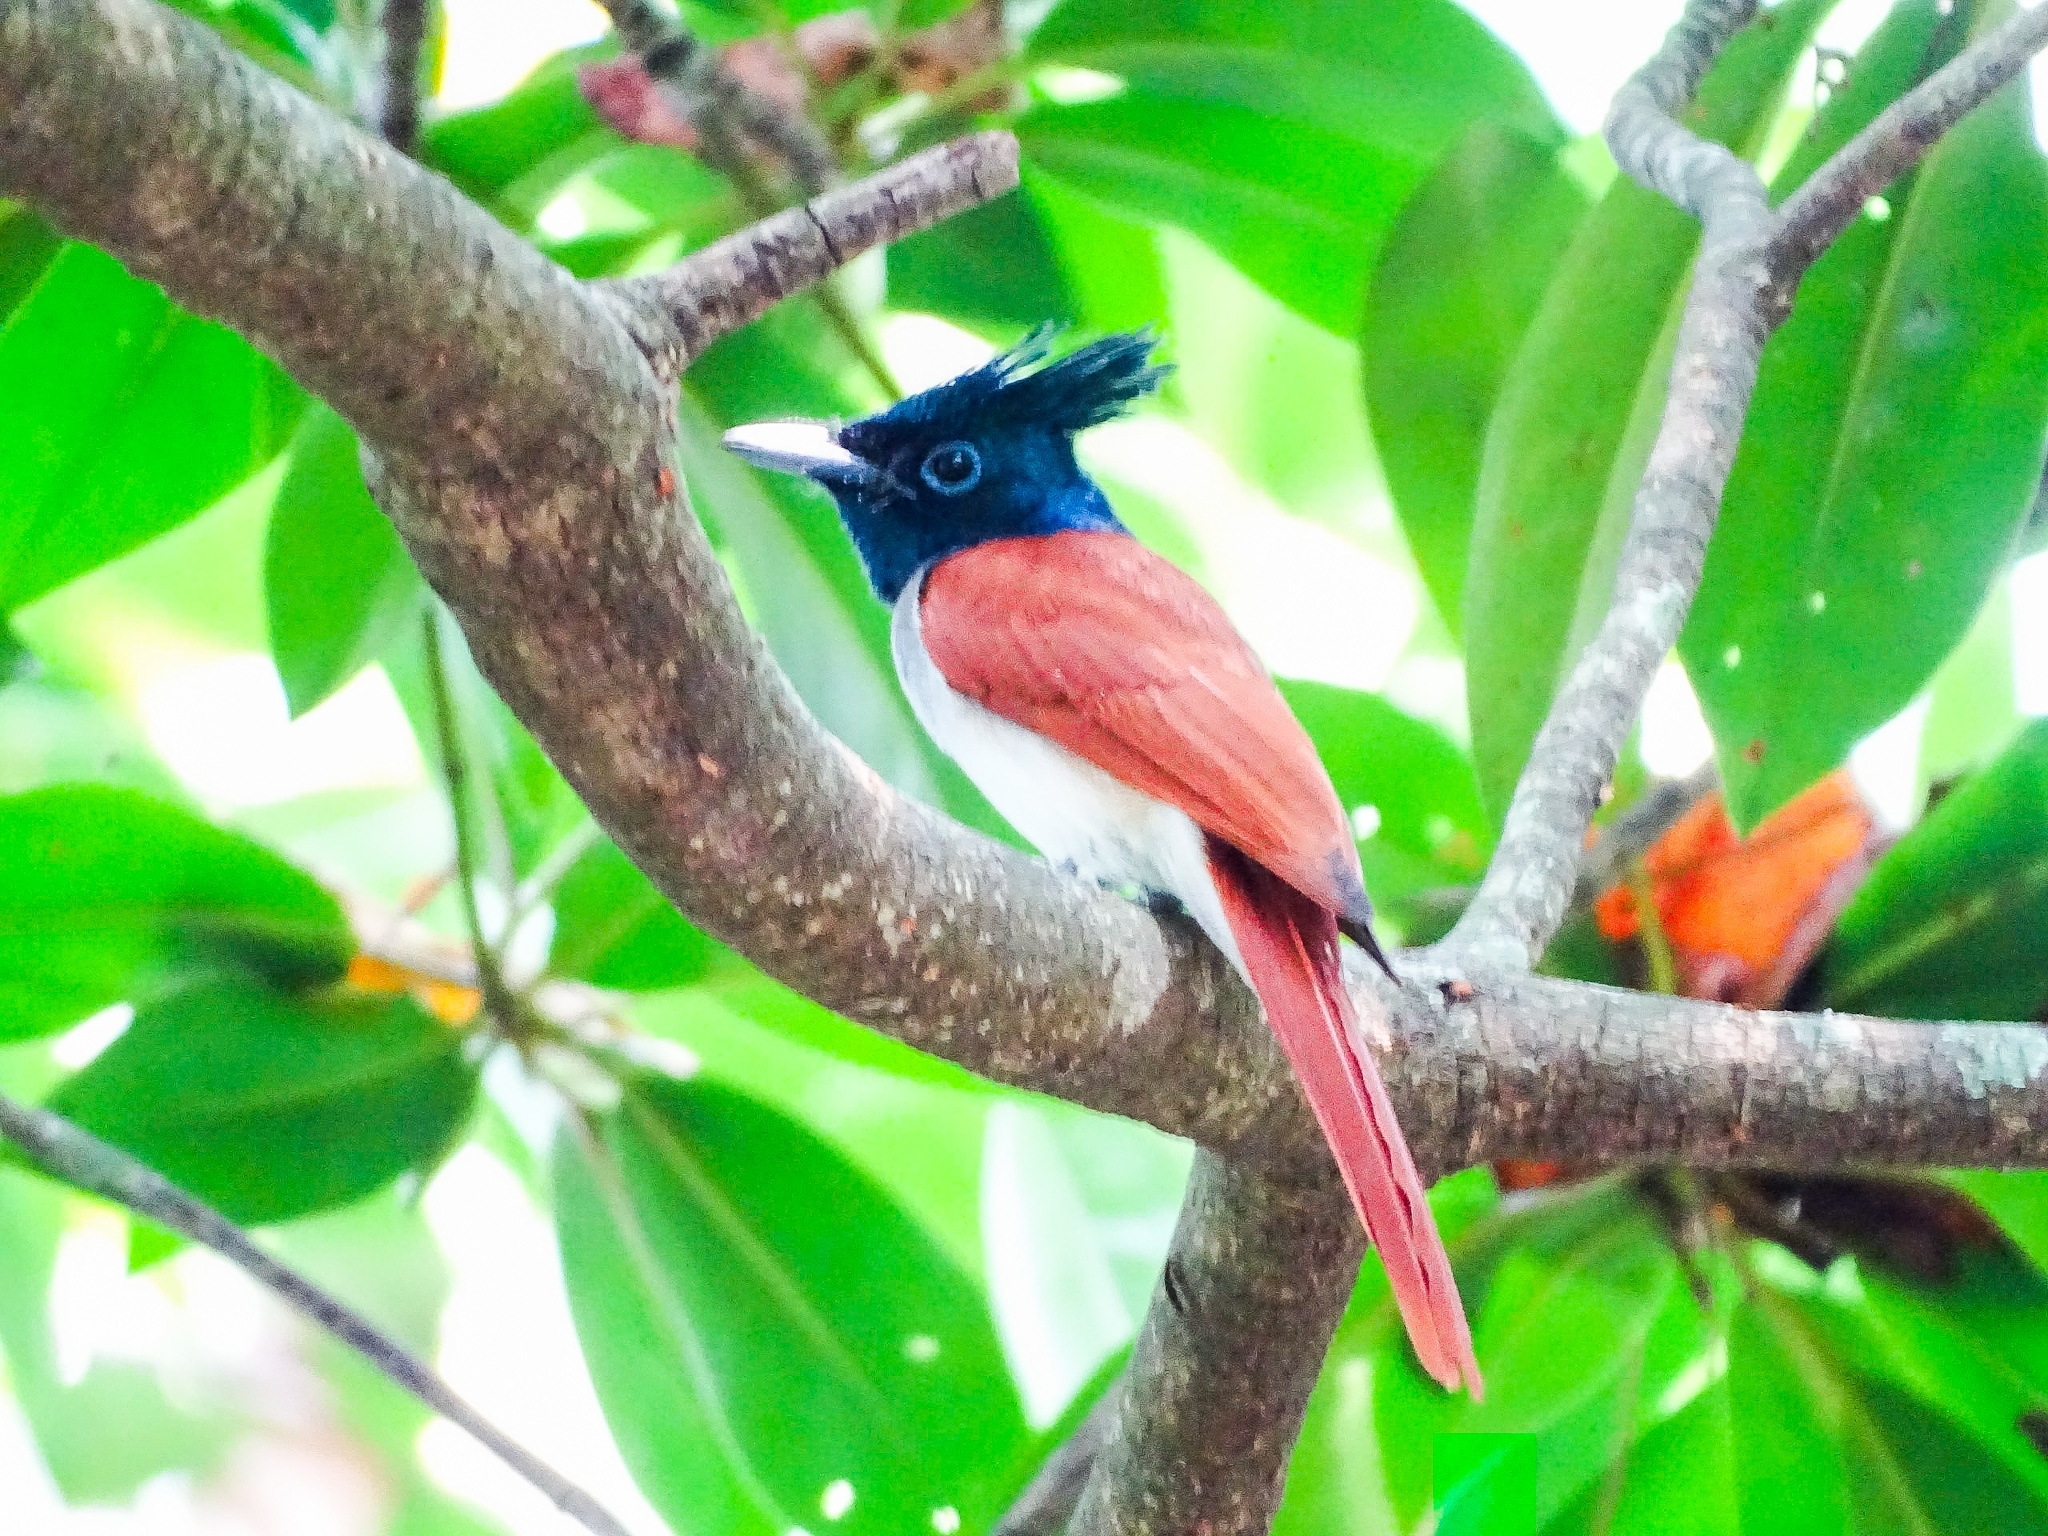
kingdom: Animalia
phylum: Chordata
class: Aves
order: Passeriformes
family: Monarchidae
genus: Terpsiphone
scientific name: Terpsiphone paradisi
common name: Indian paradise flycatcher
